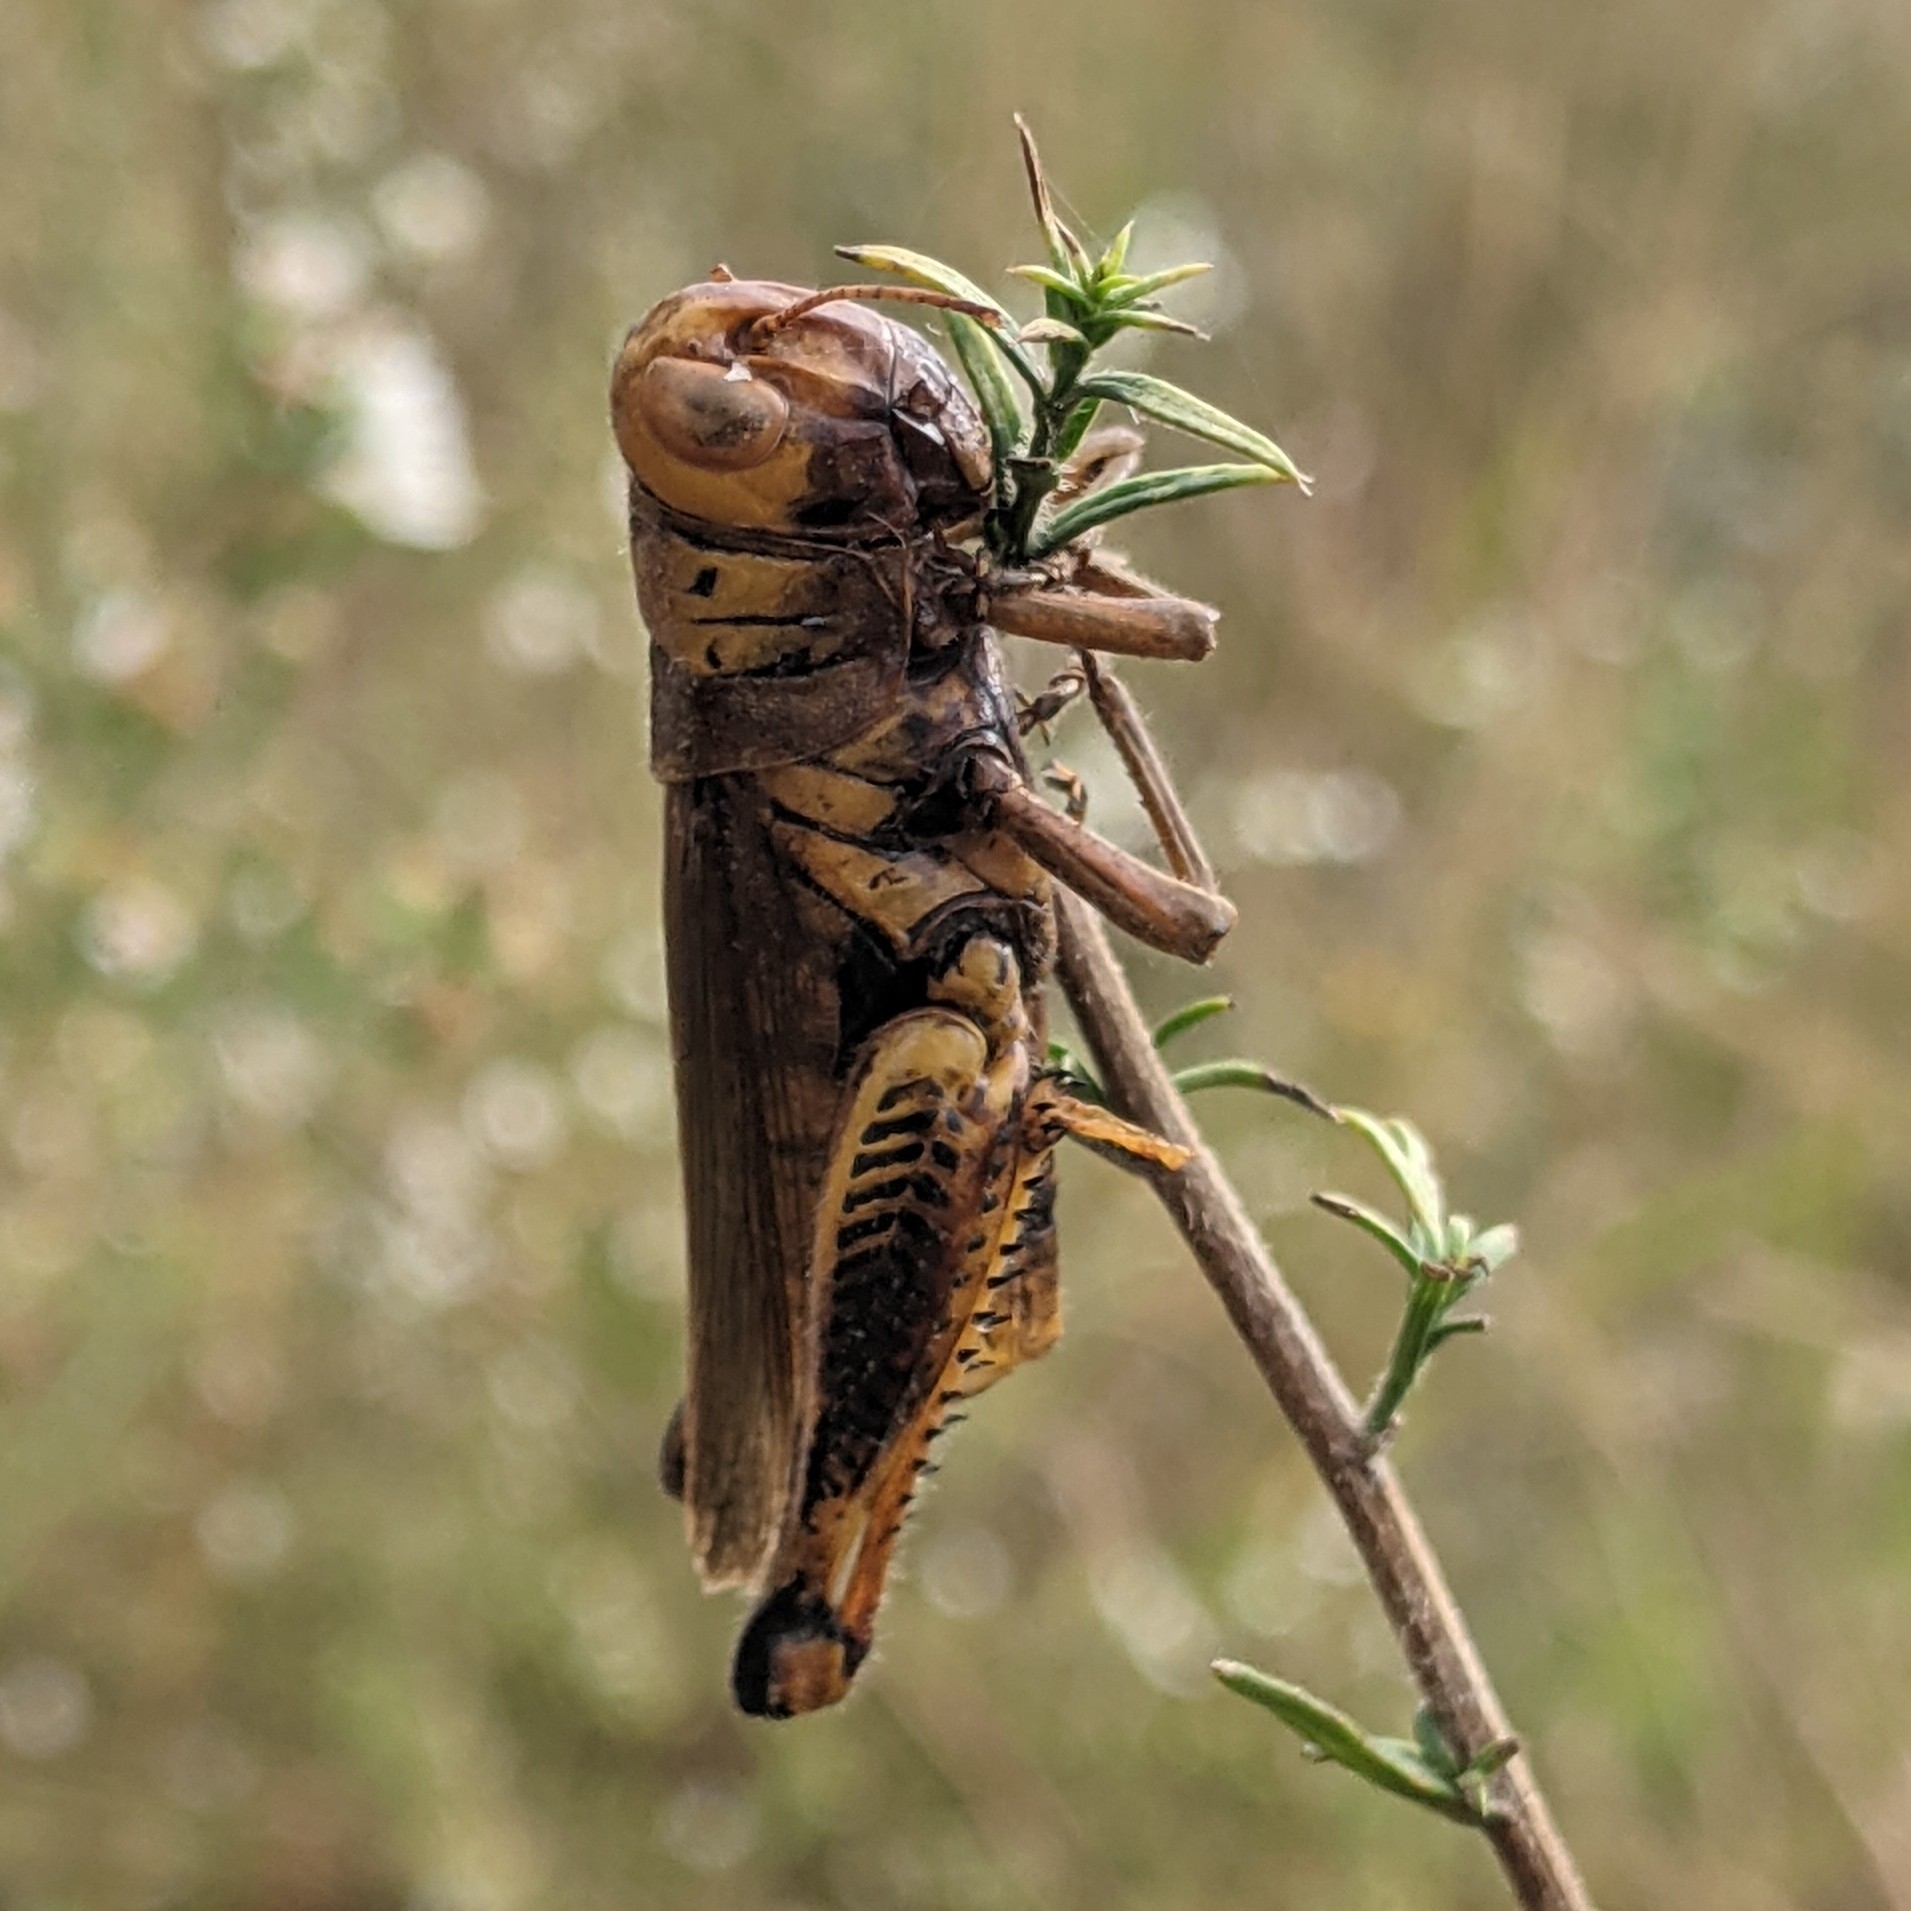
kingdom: Animalia
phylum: Arthropoda
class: Insecta
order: Orthoptera
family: Acrididae
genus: Melanoplus
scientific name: Melanoplus differentialis
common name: Differential grasshopper
